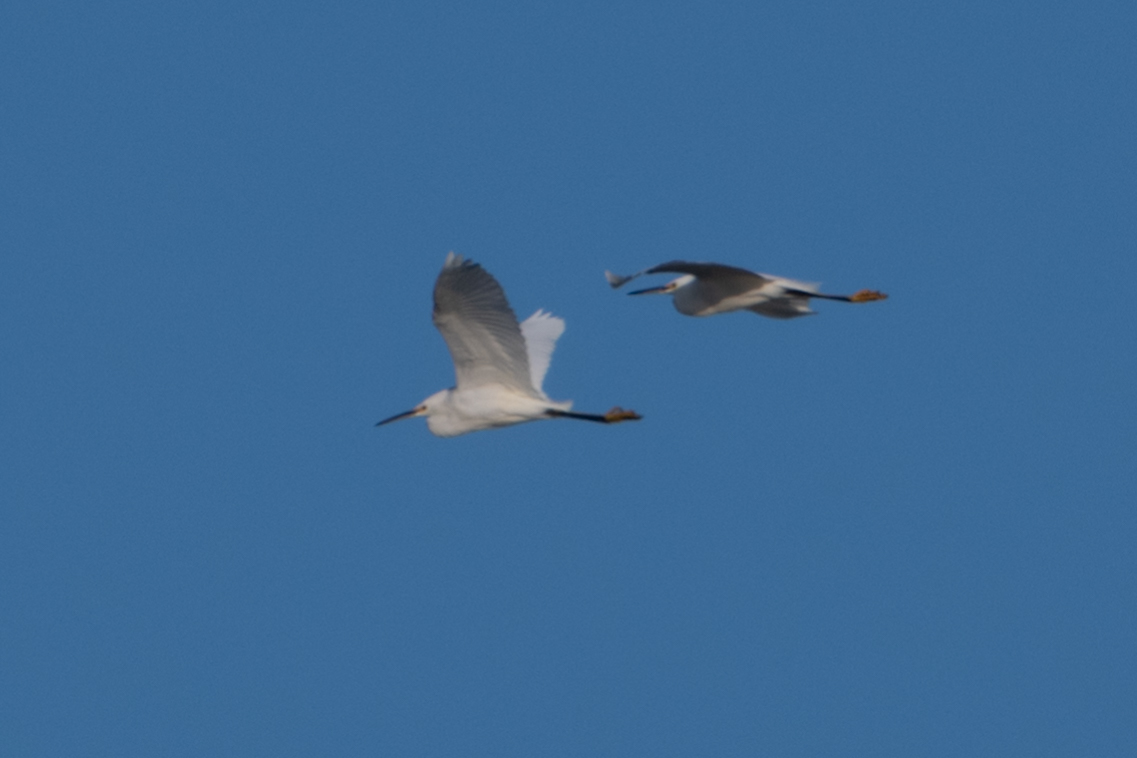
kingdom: Animalia
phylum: Chordata
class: Aves
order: Pelecaniformes
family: Ardeidae
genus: Egretta
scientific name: Egretta thula
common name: Snowy egret
